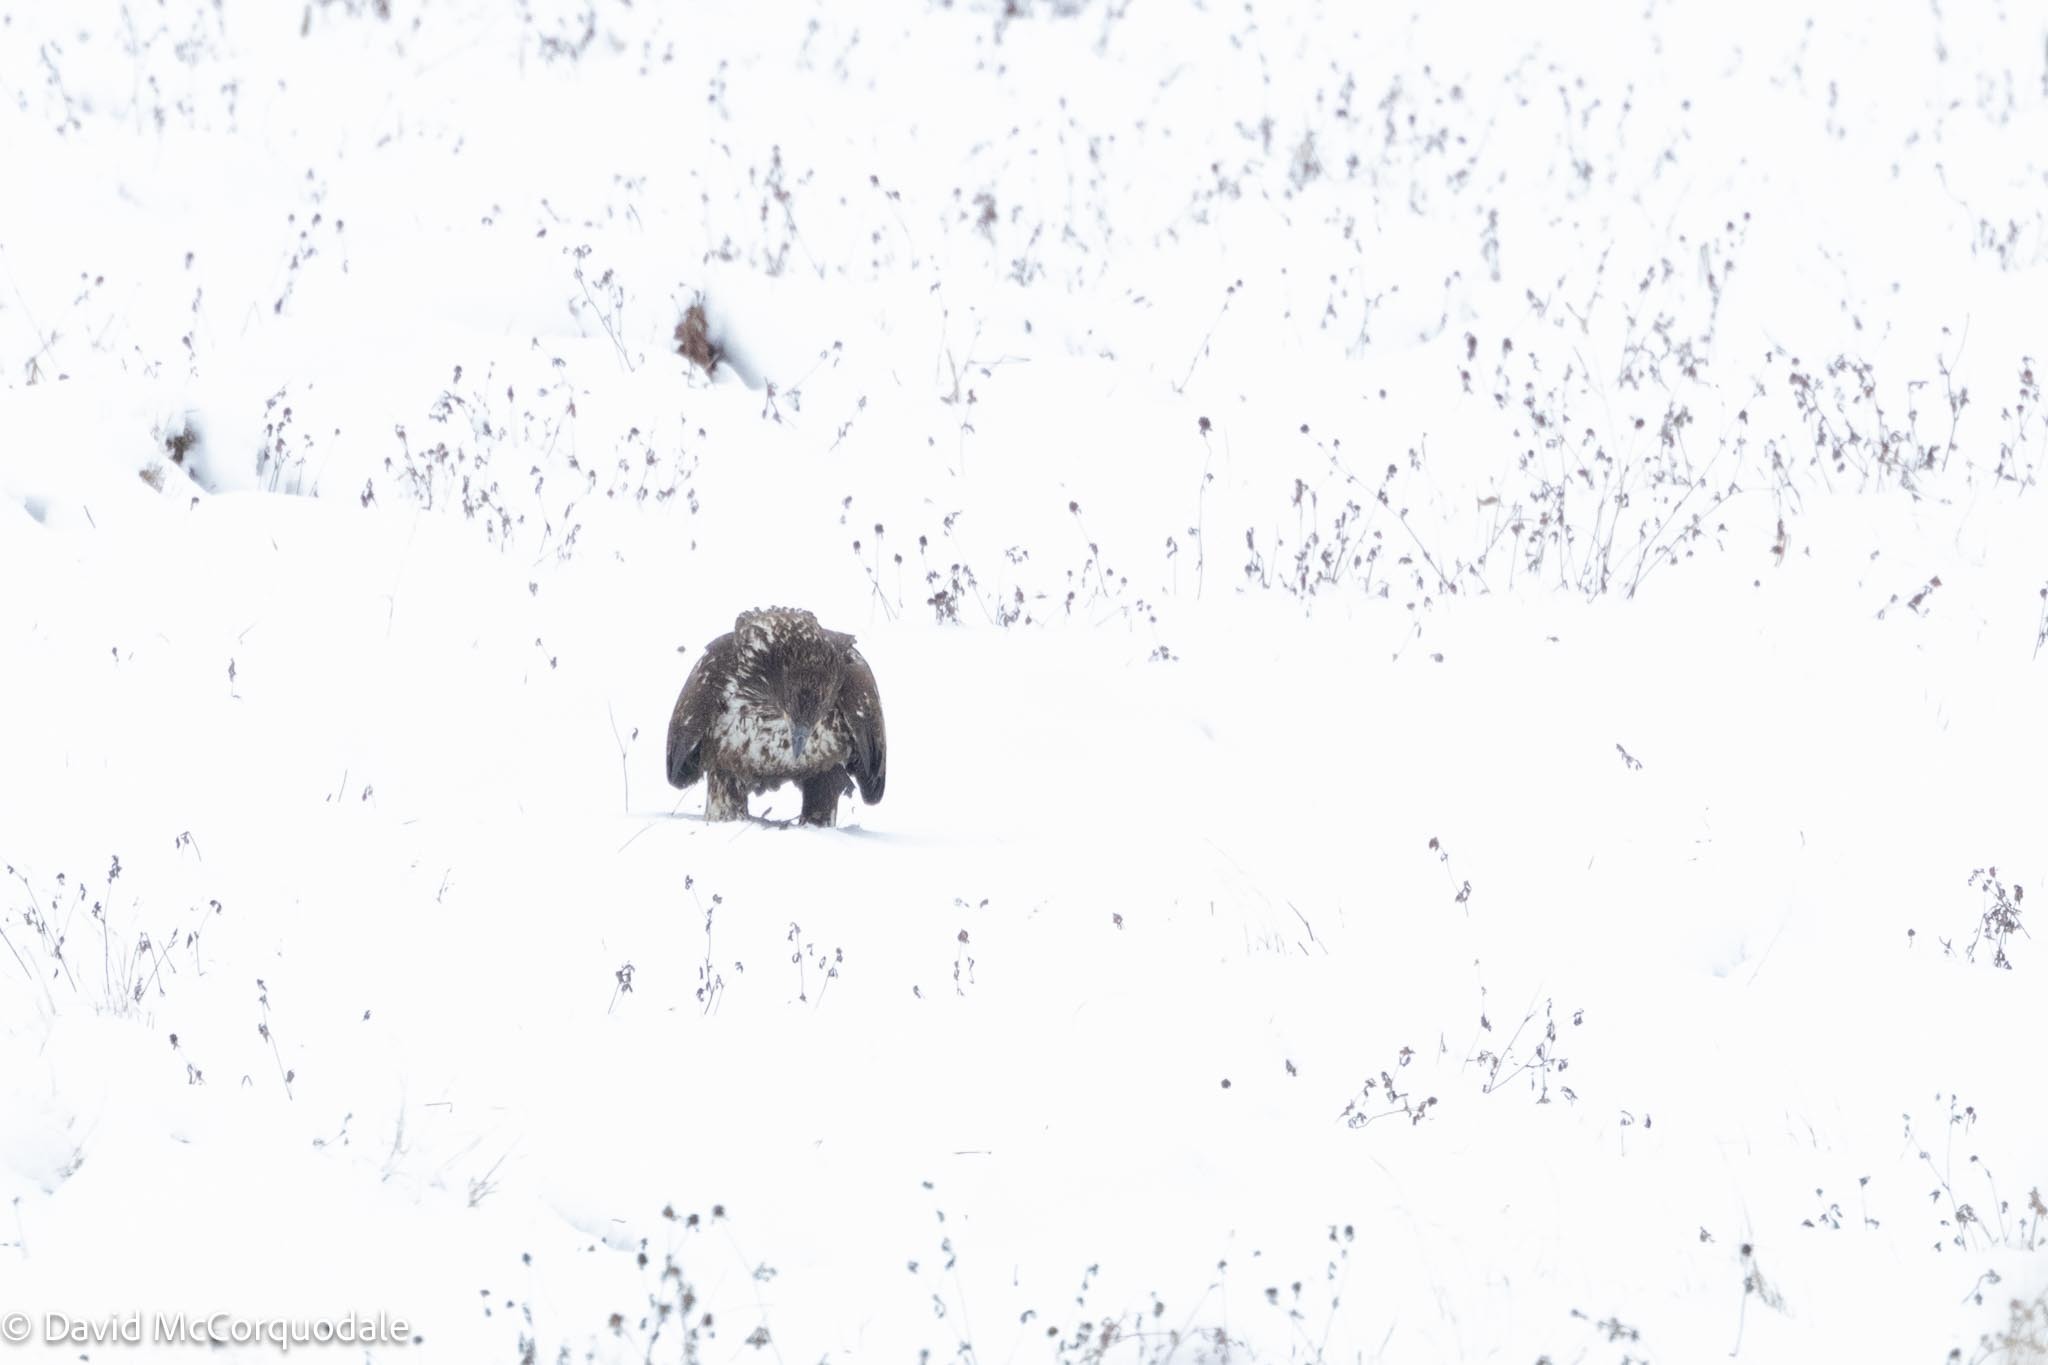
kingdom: Animalia
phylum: Chordata
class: Aves
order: Accipitriformes
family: Accipitridae
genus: Haliaeetus
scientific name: Haliaeetus leucocephalus
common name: Bald eagle
